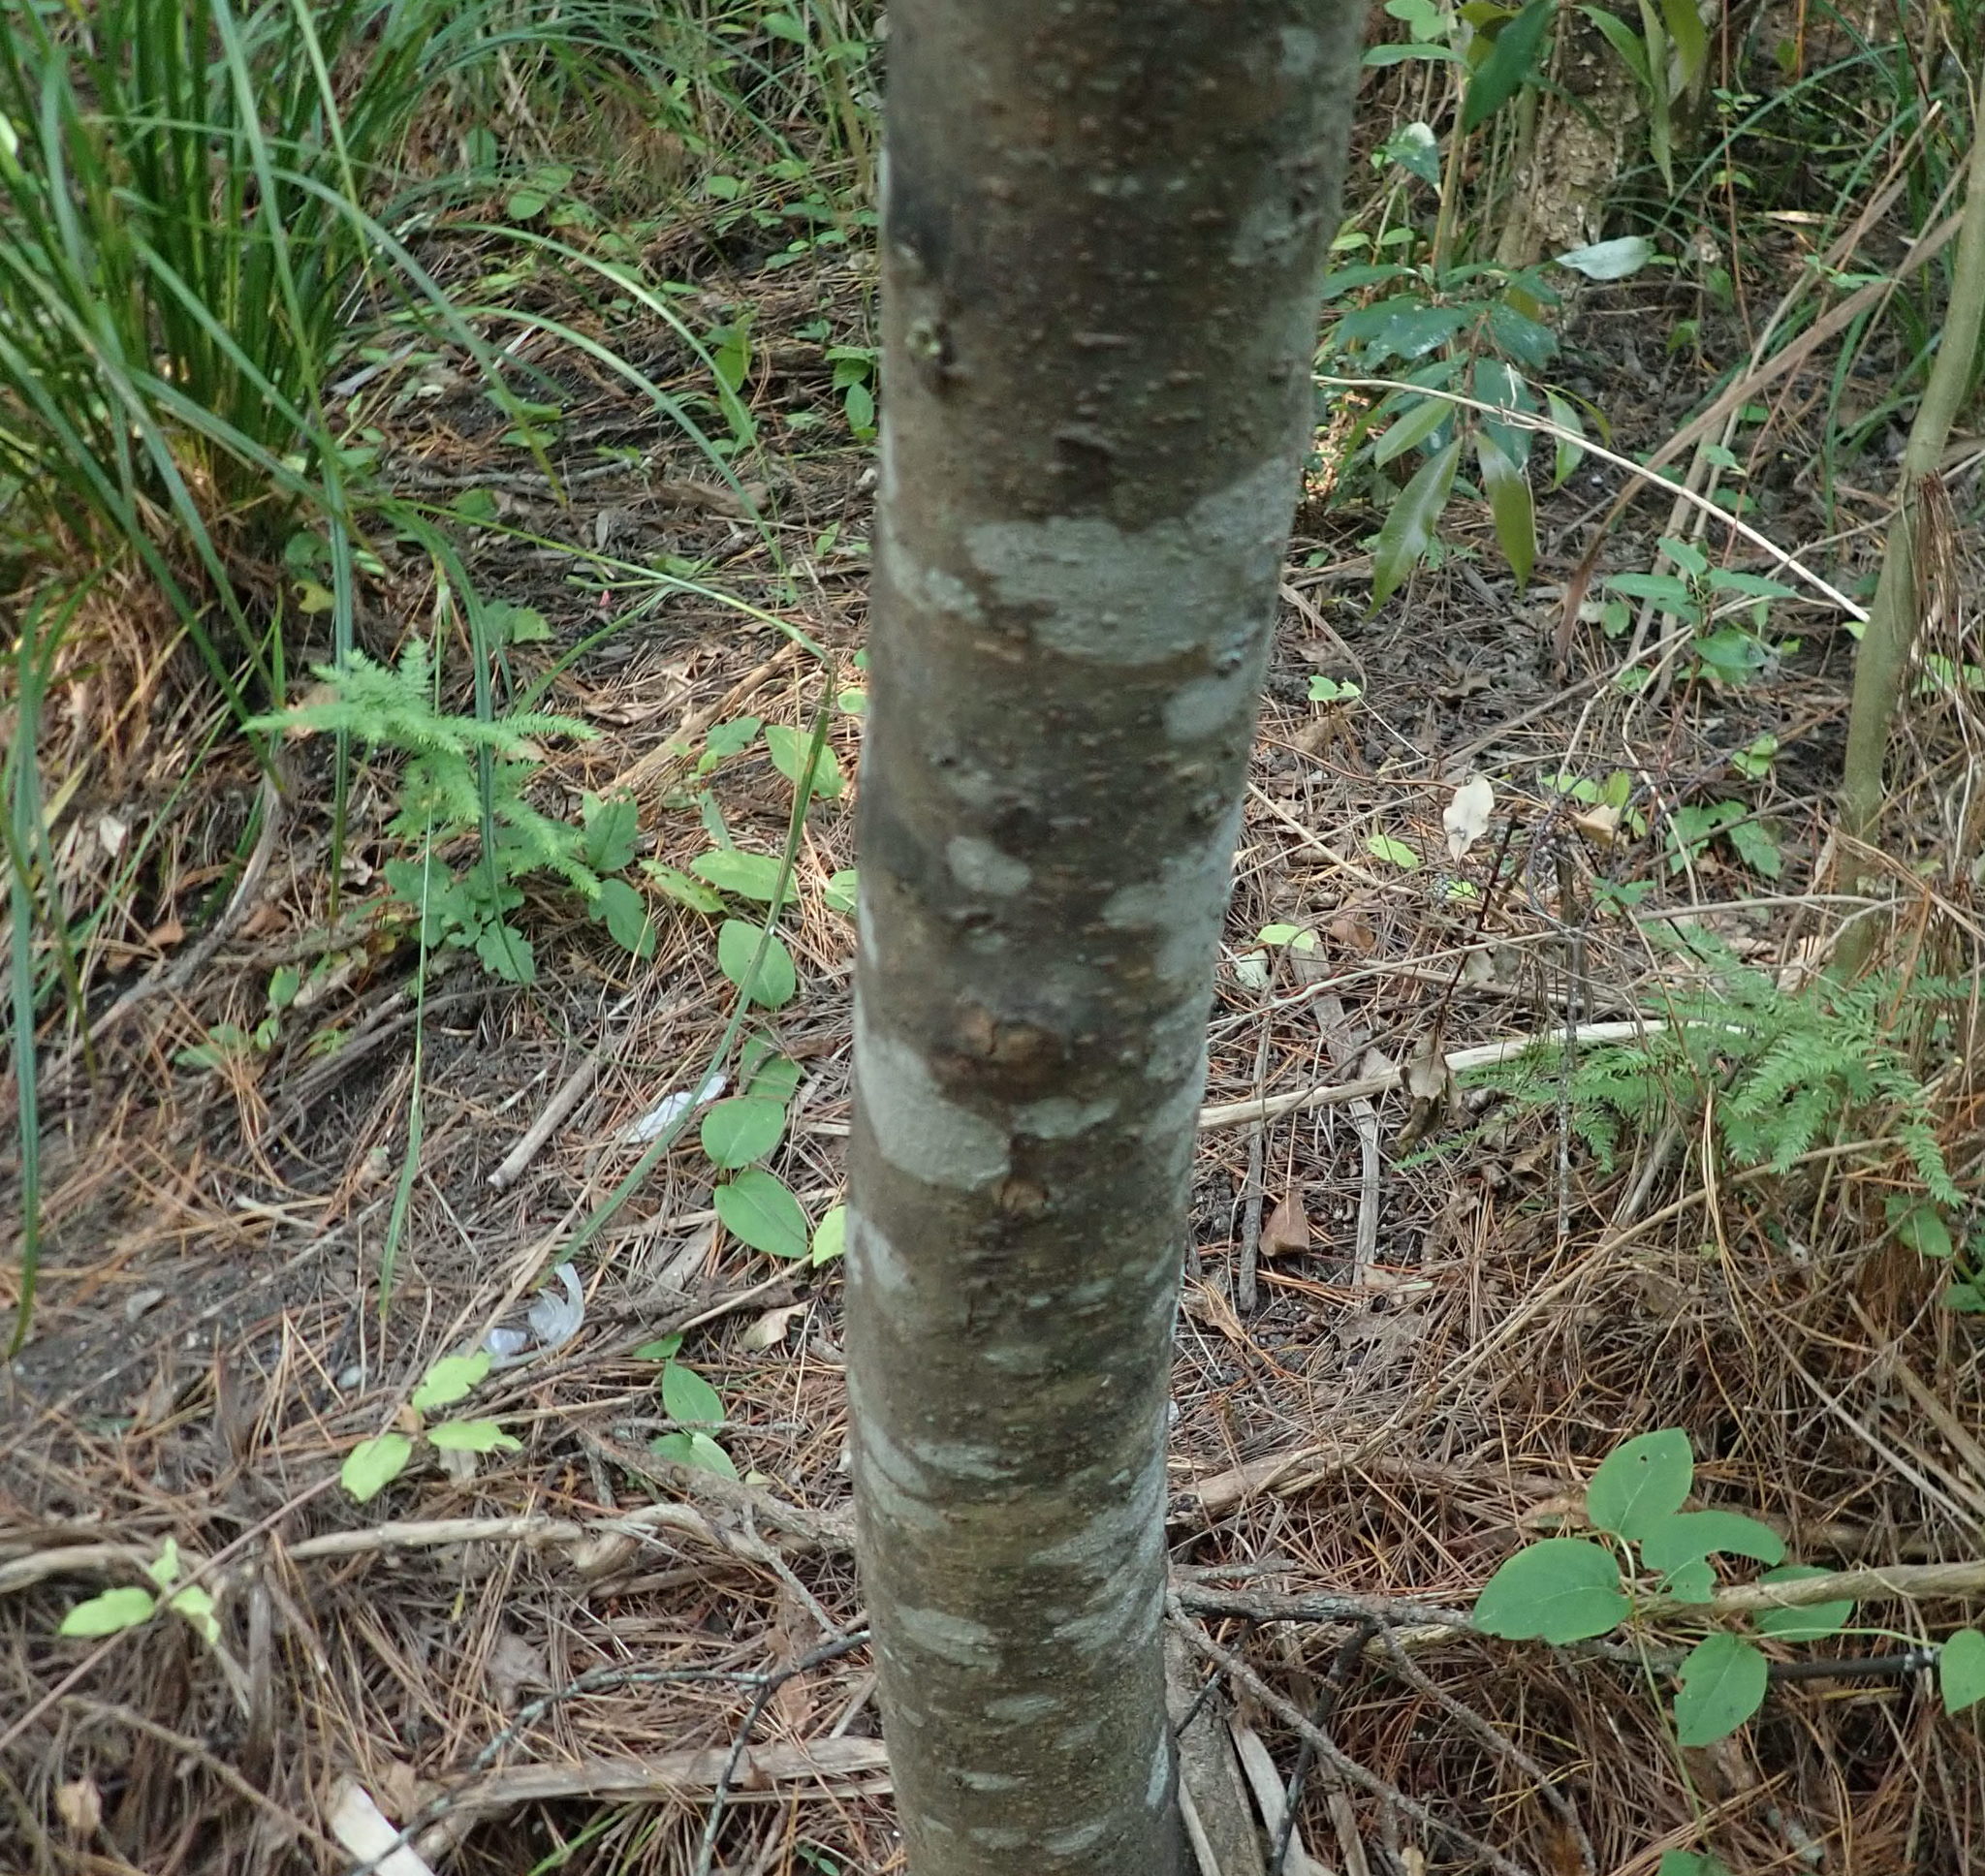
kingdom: Plantae
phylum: Tracheophyta
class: Liliopsida
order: Asparagales
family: Asparagaceae
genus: Asparagus
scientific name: Asparagus scandens
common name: Asparagus-fern
